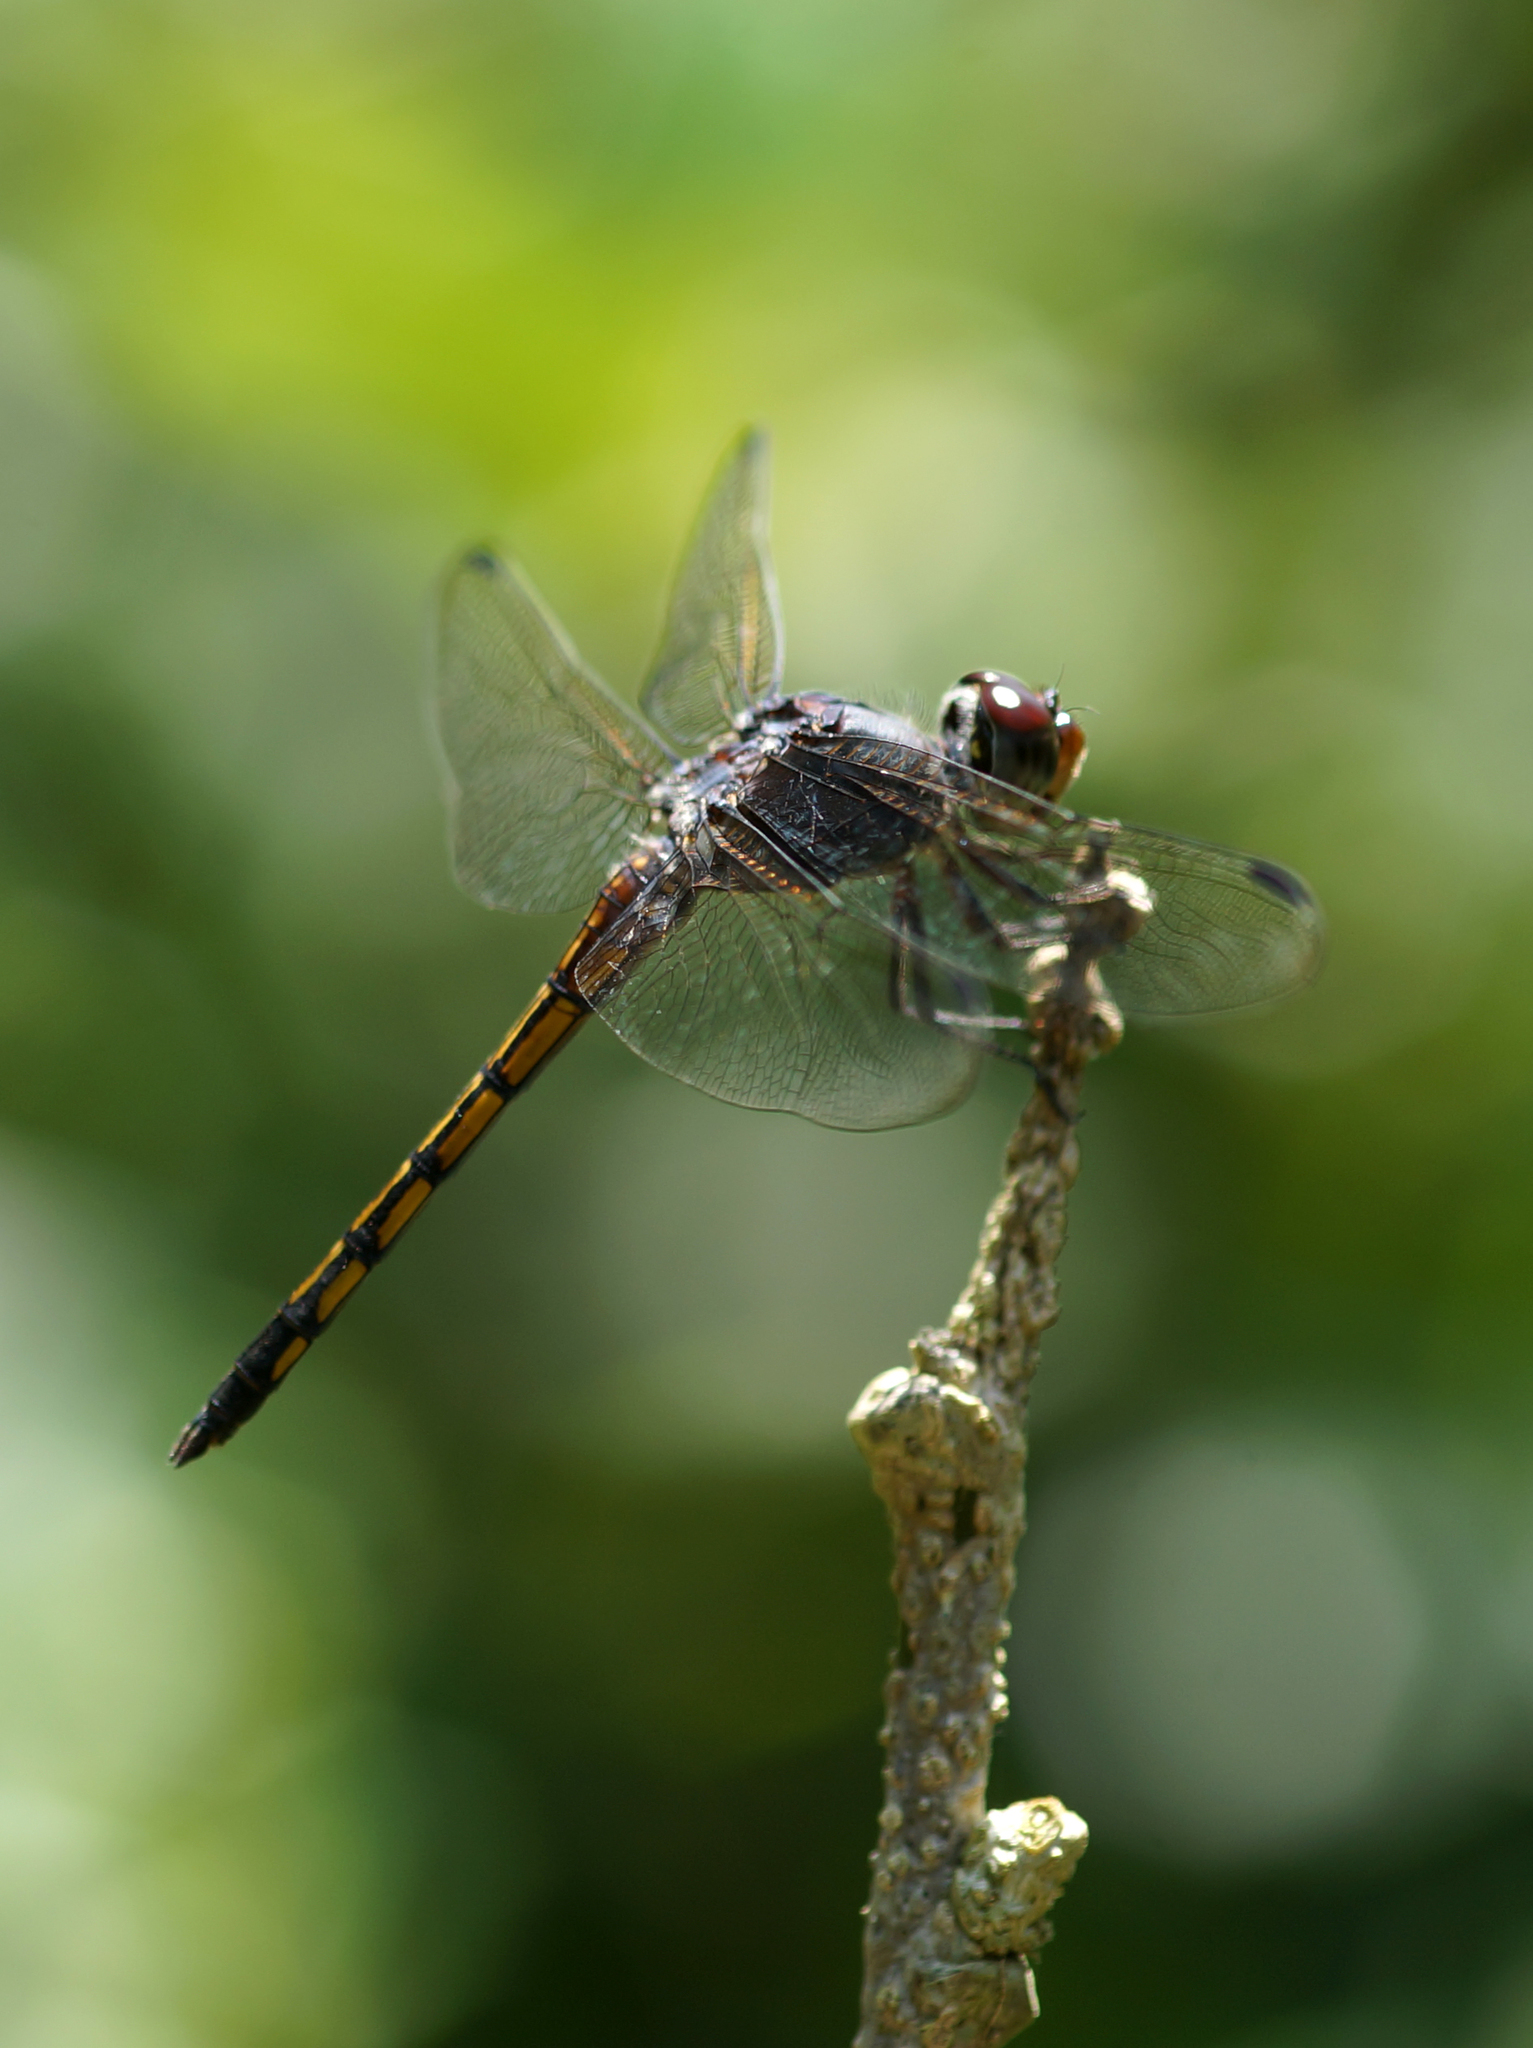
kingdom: Animalia
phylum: Arthropoda
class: Insecta
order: Odonata
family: Libellulidae
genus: Potamarcha
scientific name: Potamarcha congener
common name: Blue chaser
